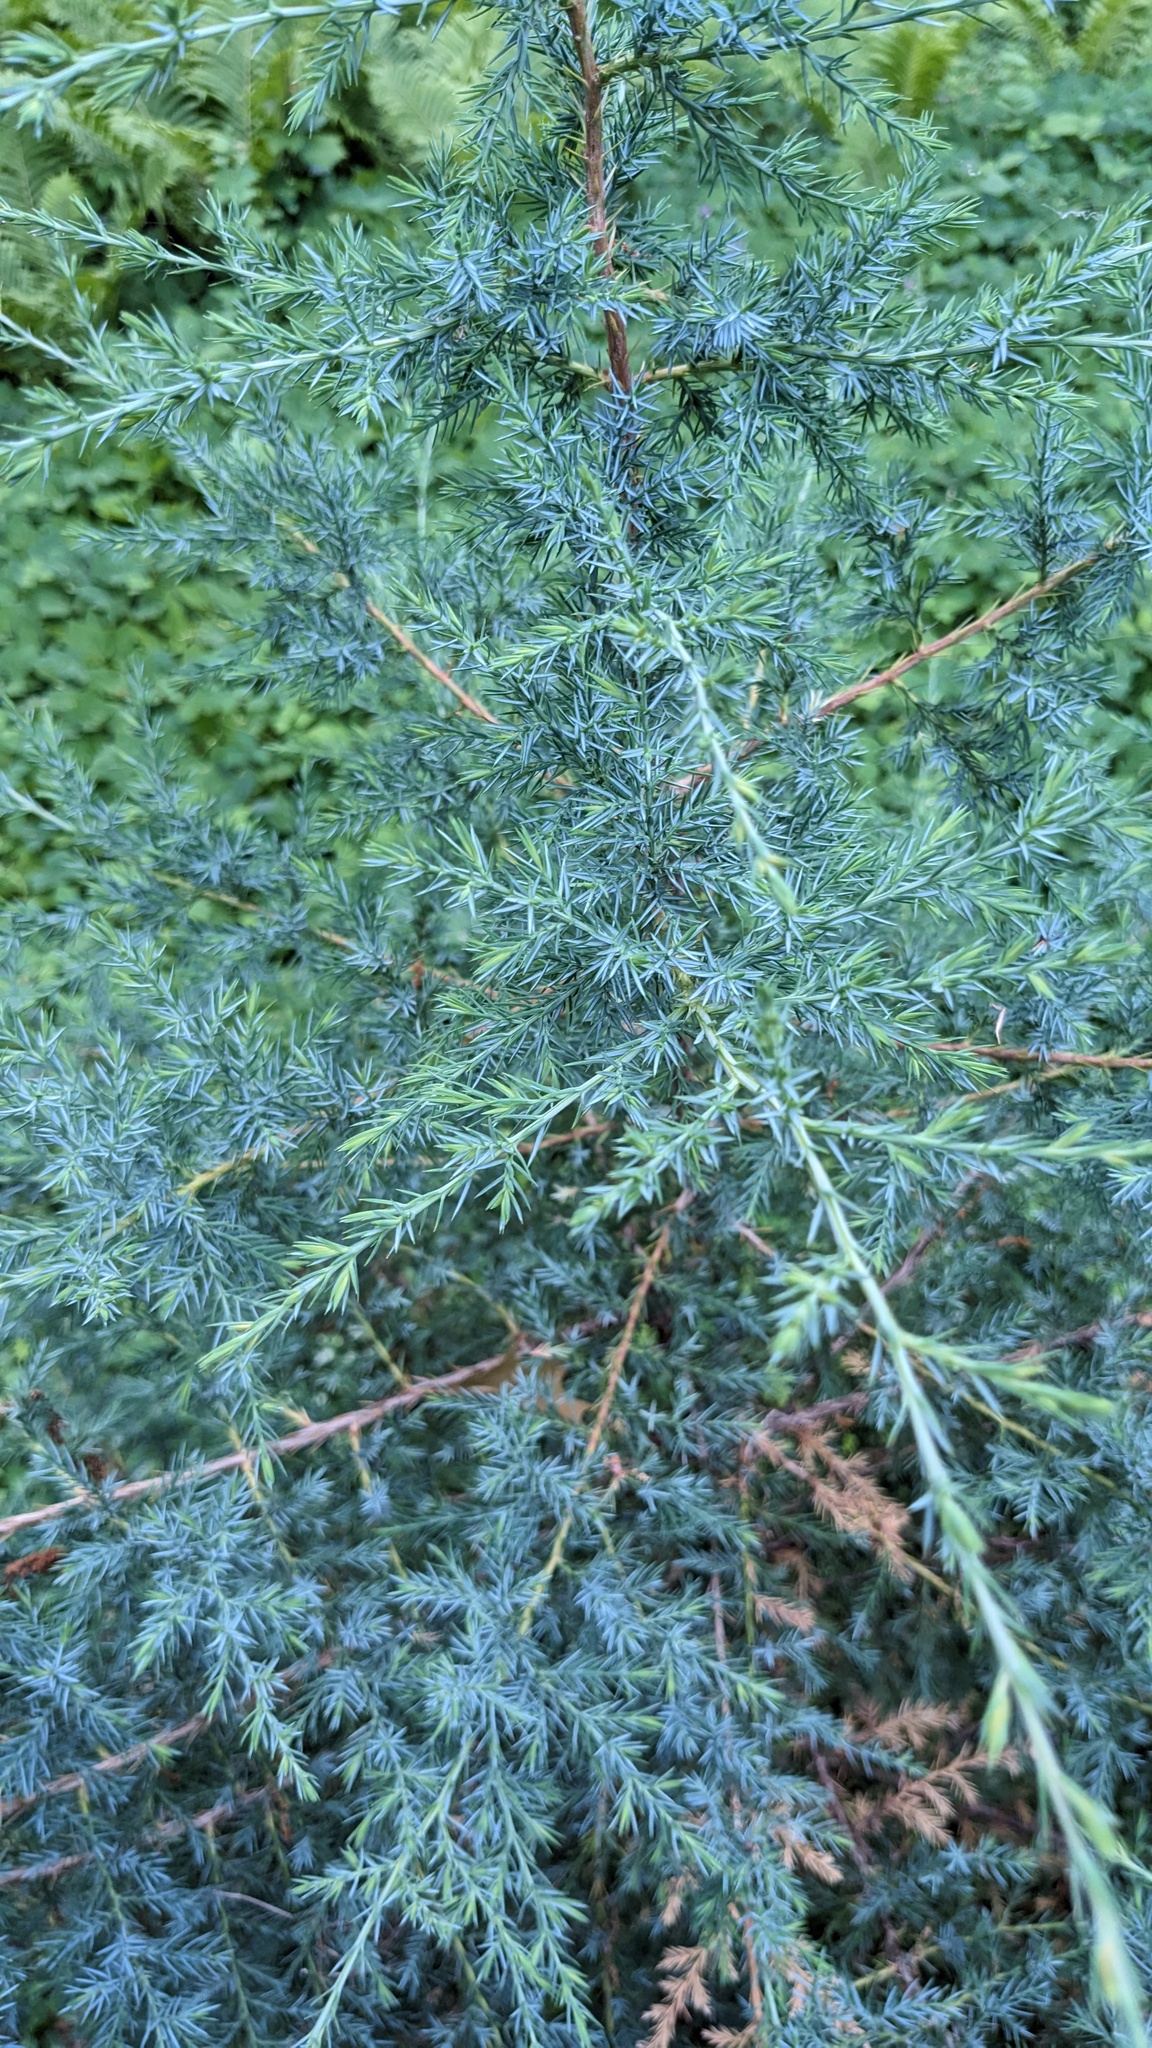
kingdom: Plantae
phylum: Tracheophyta
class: Pinopsida
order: Pinales
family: Cupressaceae
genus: Juniperus
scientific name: Juniperus virginiana
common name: Red juniper
